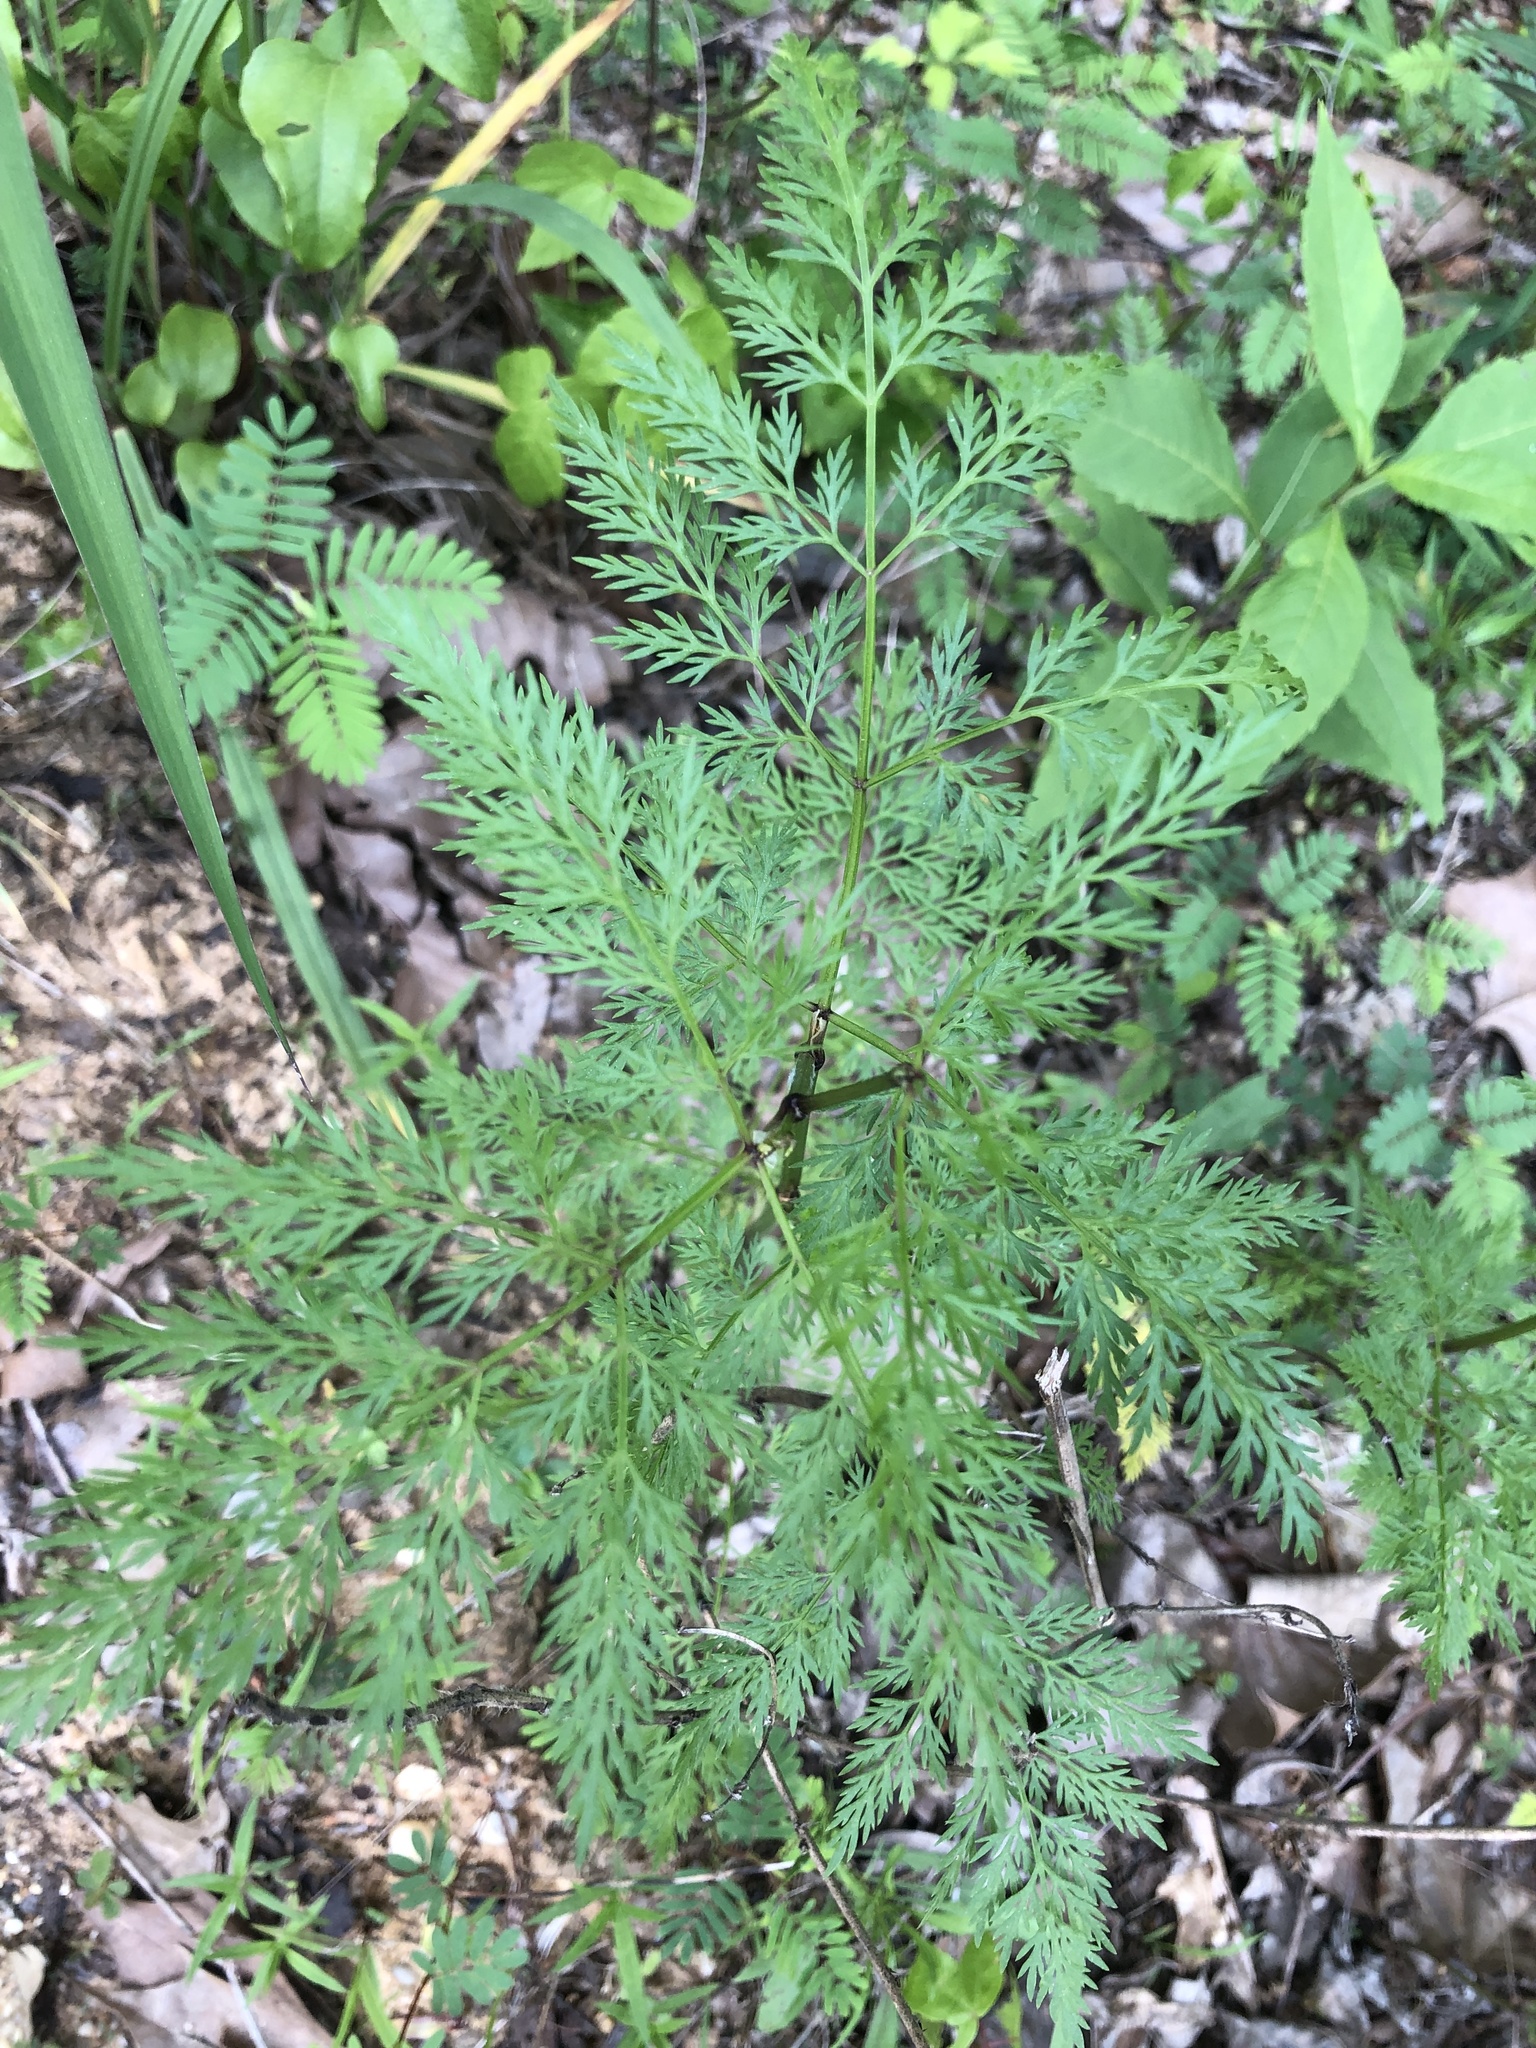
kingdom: Plantae
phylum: Tracheophyta
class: Magnoliopsida
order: Apiales
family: Apiaceae
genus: Trepocarpus
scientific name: Trepocarpus aethusae
